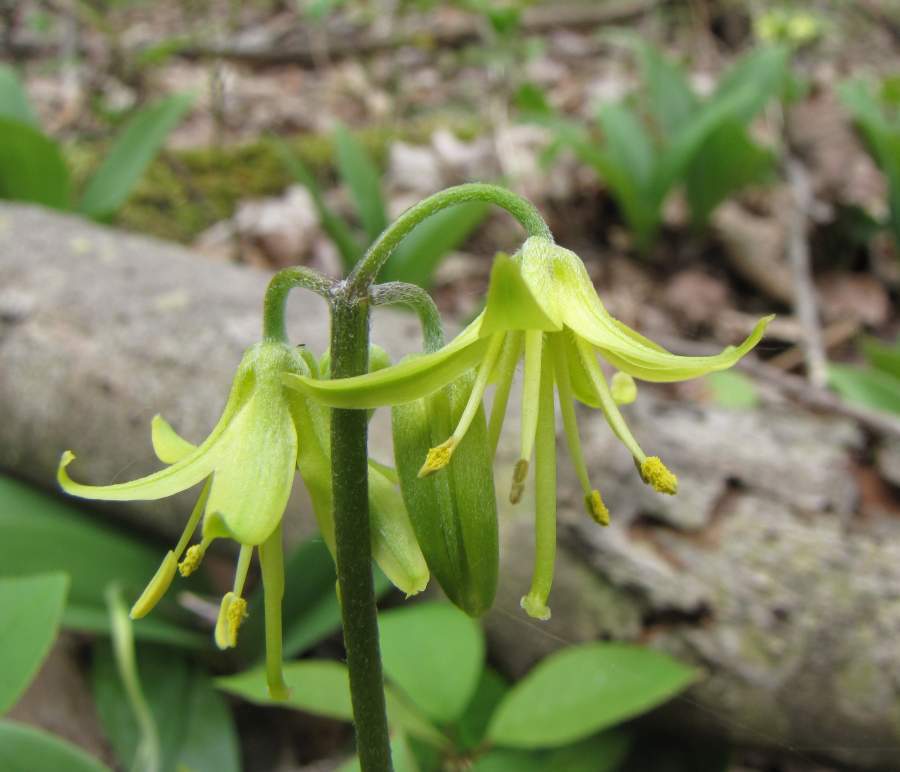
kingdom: Plantae
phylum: Tracheophyta
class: Liliopsida
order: Liliales
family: Liliaceae
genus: Clintonia
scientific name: Clintonia borealis
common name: Yellow clintonia
